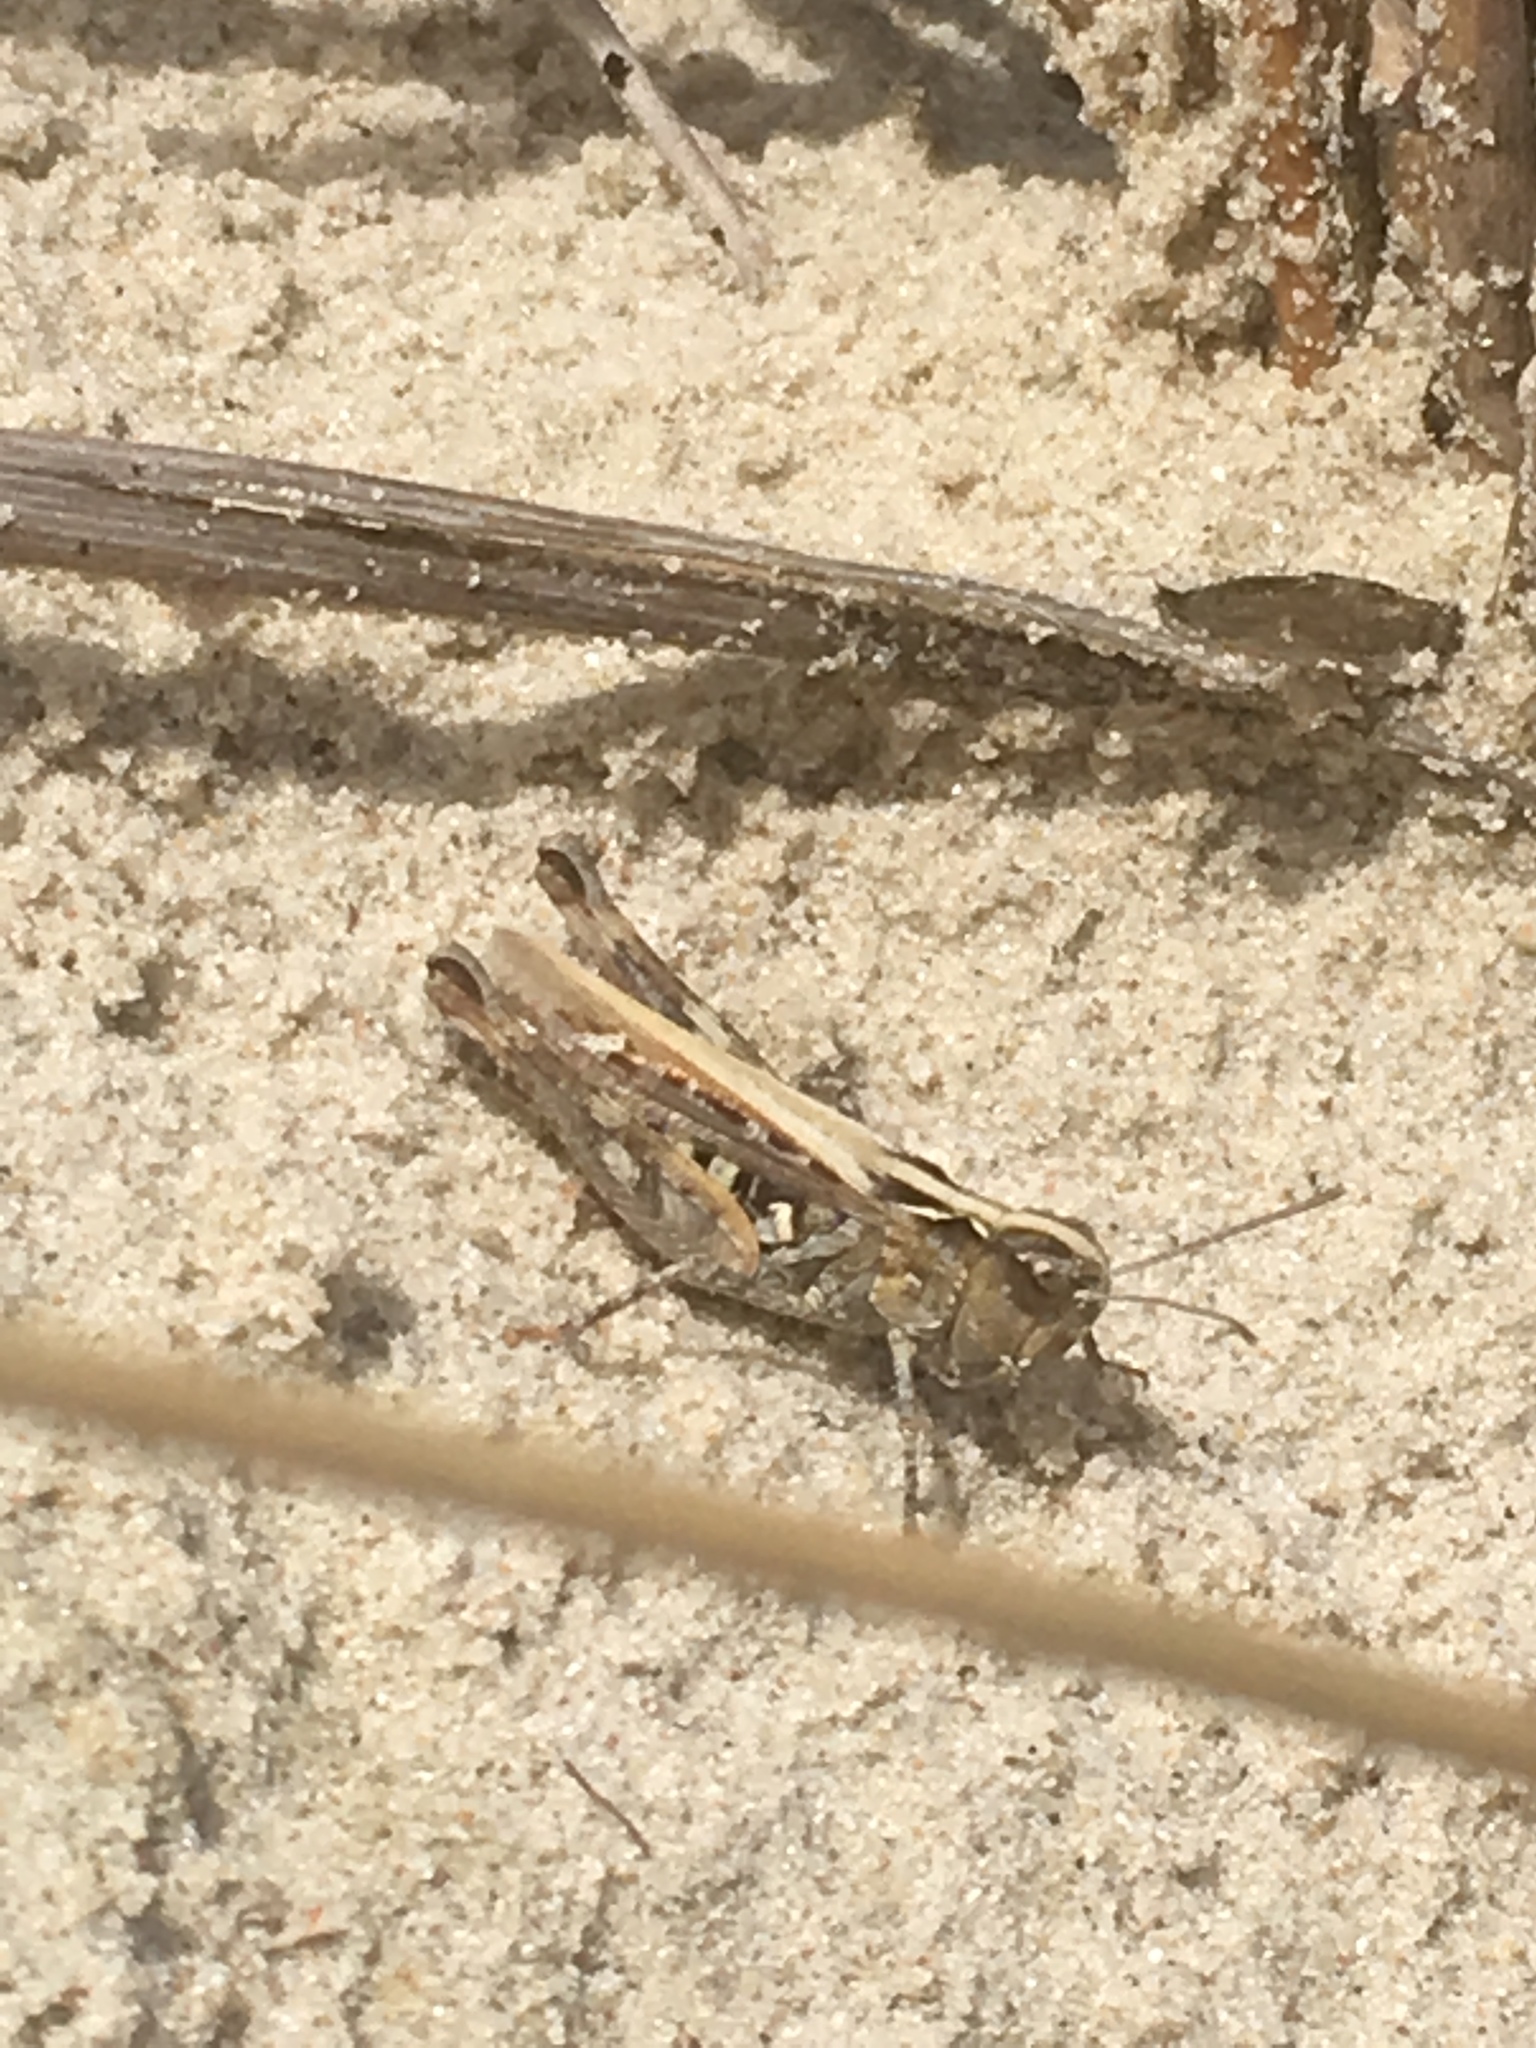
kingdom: Animalia
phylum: Arthropoda
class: Insecta
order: Orthoptera
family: Acrididae
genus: Myrmeleotettix
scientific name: Myrmeleotettix maculatus
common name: Mottled grasshopper
